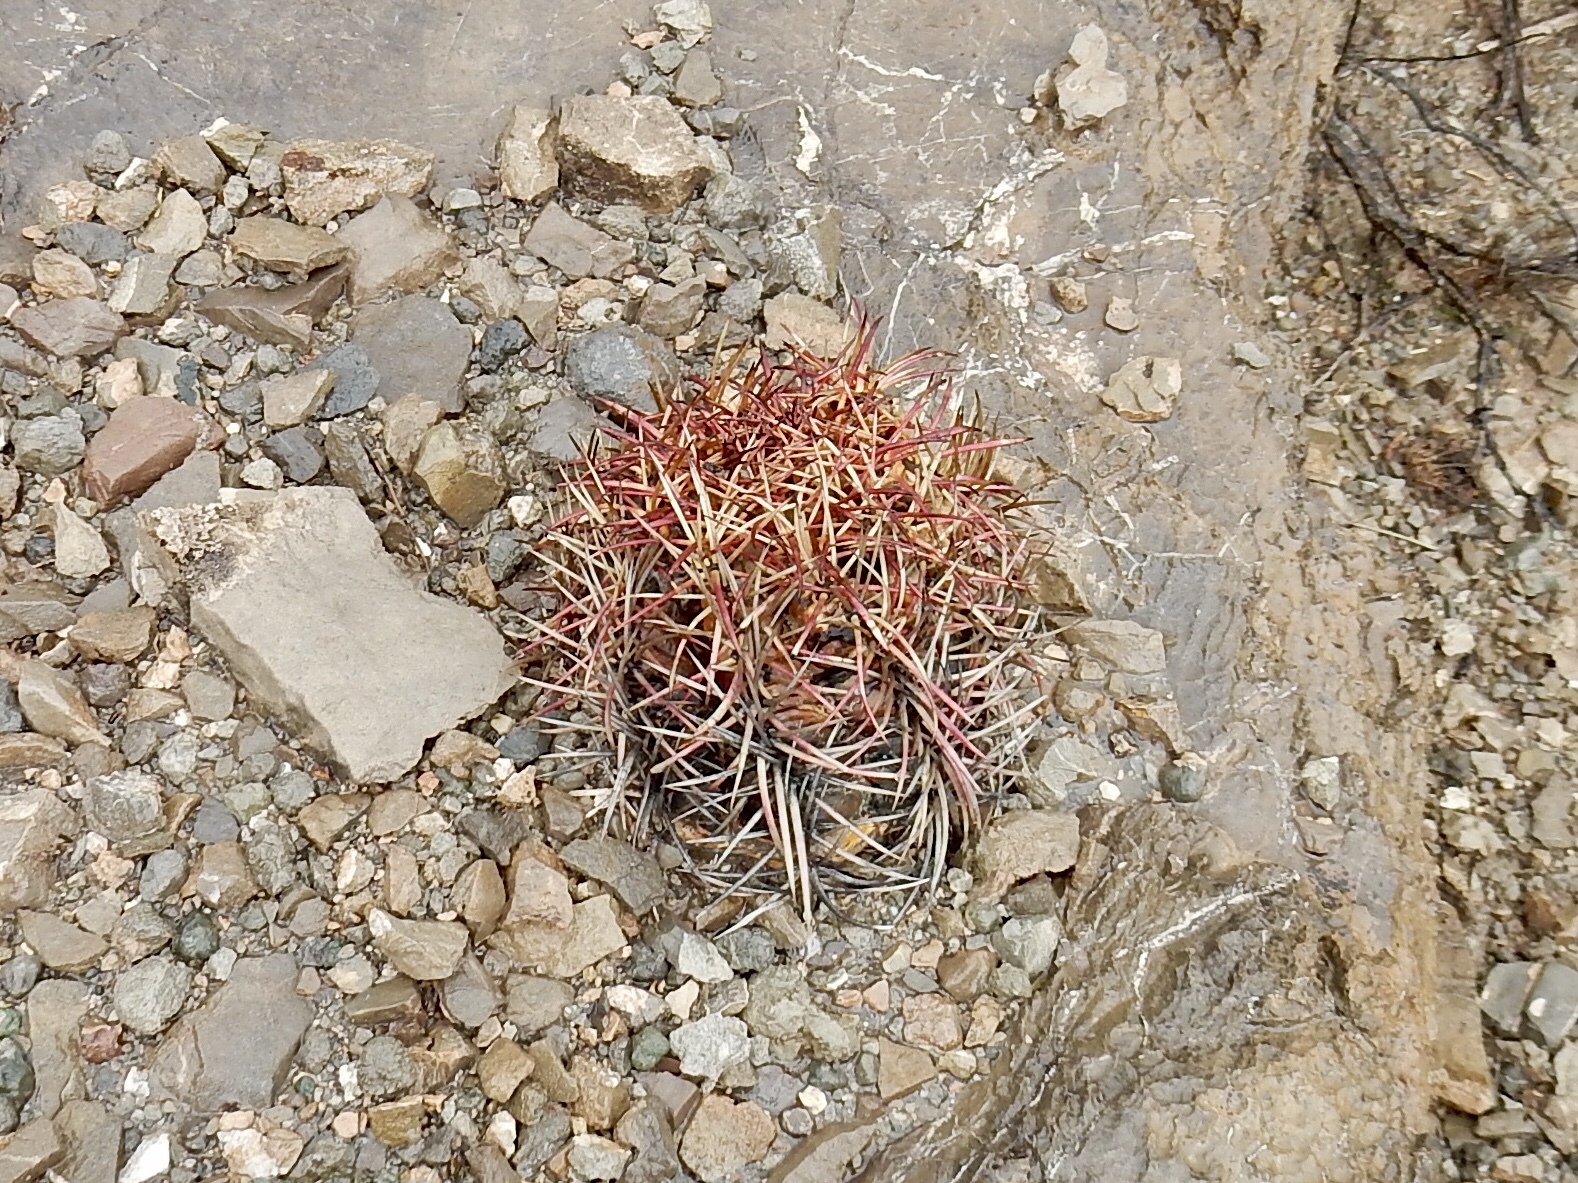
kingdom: Plantae
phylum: Tracheophyta
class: Magnoliopsida
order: Caryophyllales
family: Cactaceae
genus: Echinocactus
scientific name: Echinocactus horizonthalonius
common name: Devilshead
